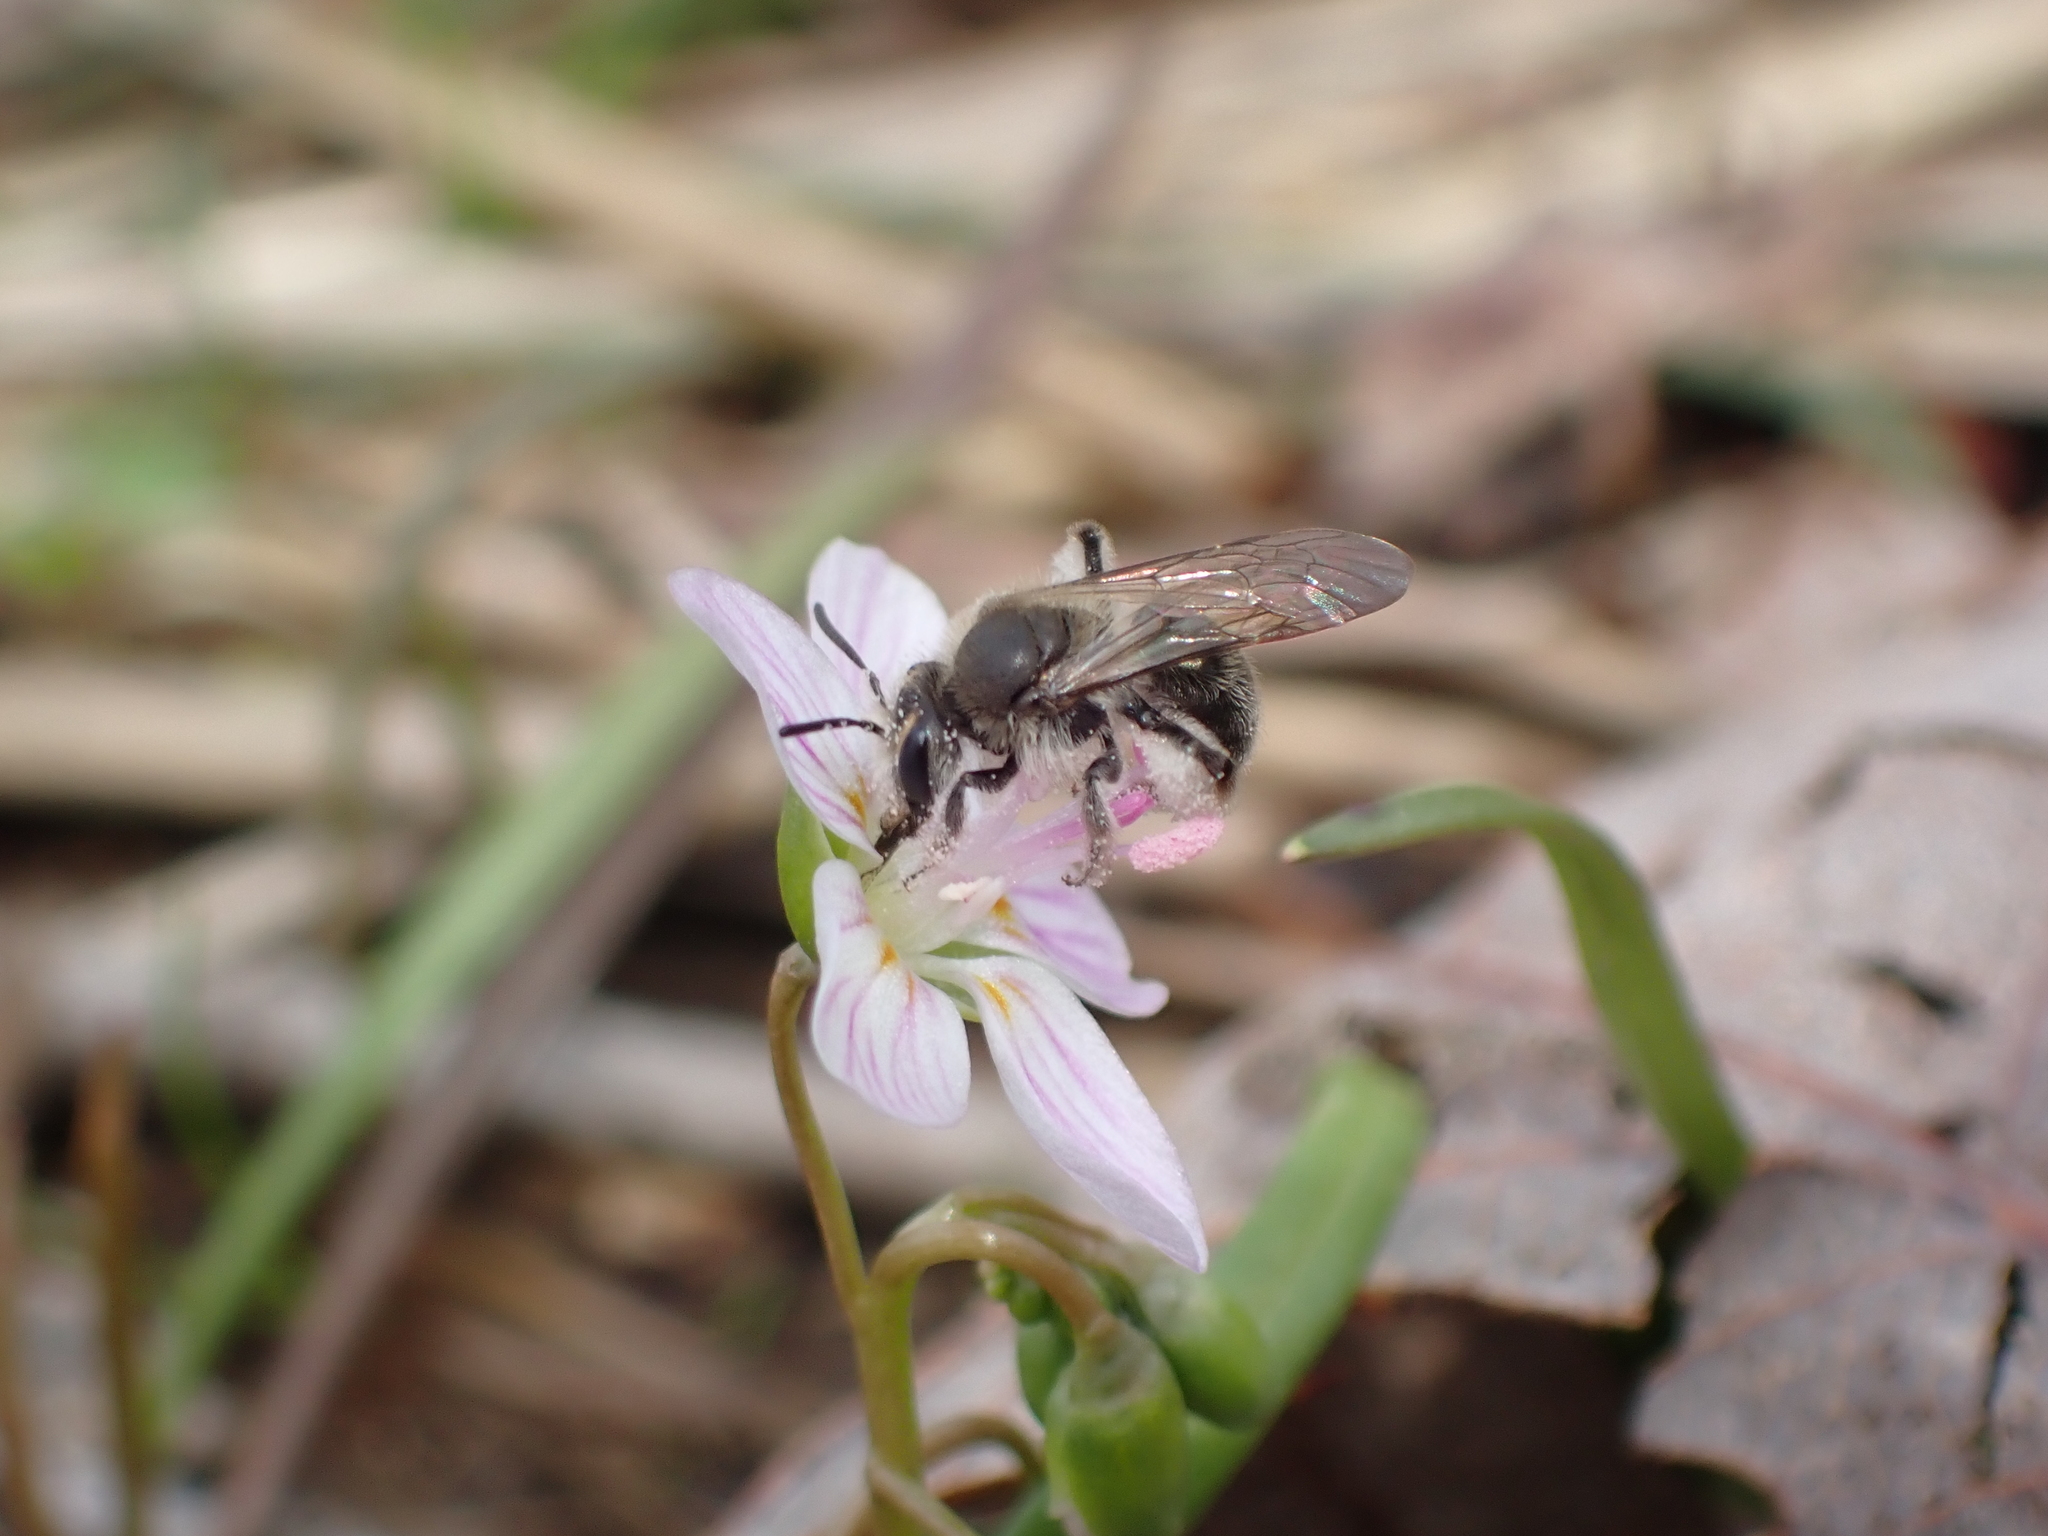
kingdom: Animalia
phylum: Arthropoda
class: Insecta
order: Hymenoptera
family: Andrenidae
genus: Andrena
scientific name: Andrena erigeniae
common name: Spring beauty miner
